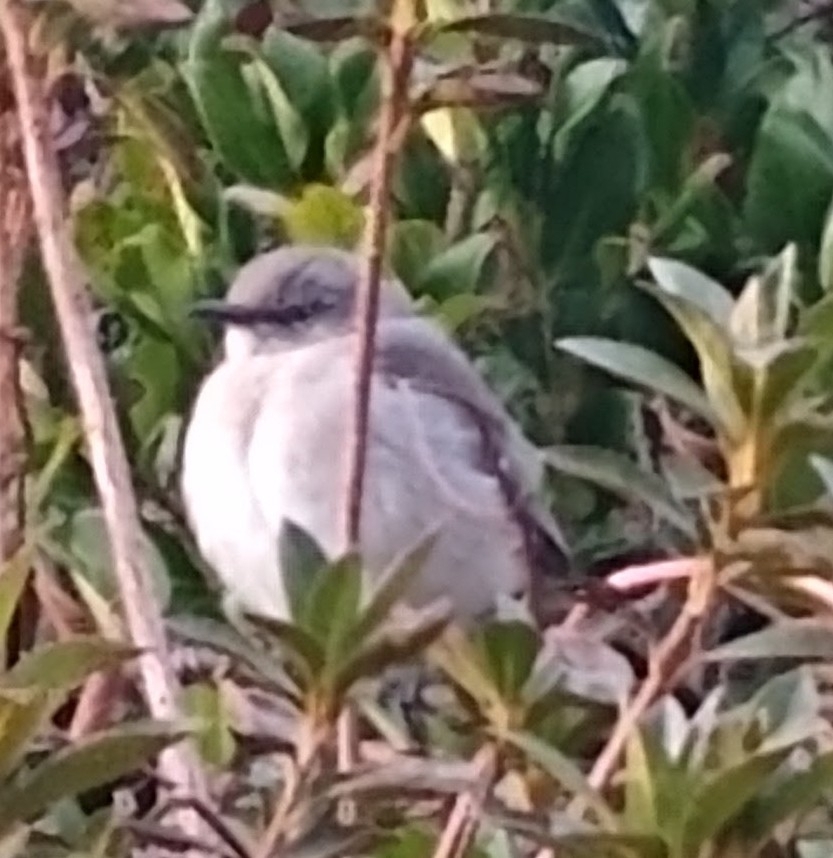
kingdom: Animalia
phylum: Chordata
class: Aves
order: Passeriformes
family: Mimidae
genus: Mimus
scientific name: Mimus polyglottos
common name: Northern mockingbird
